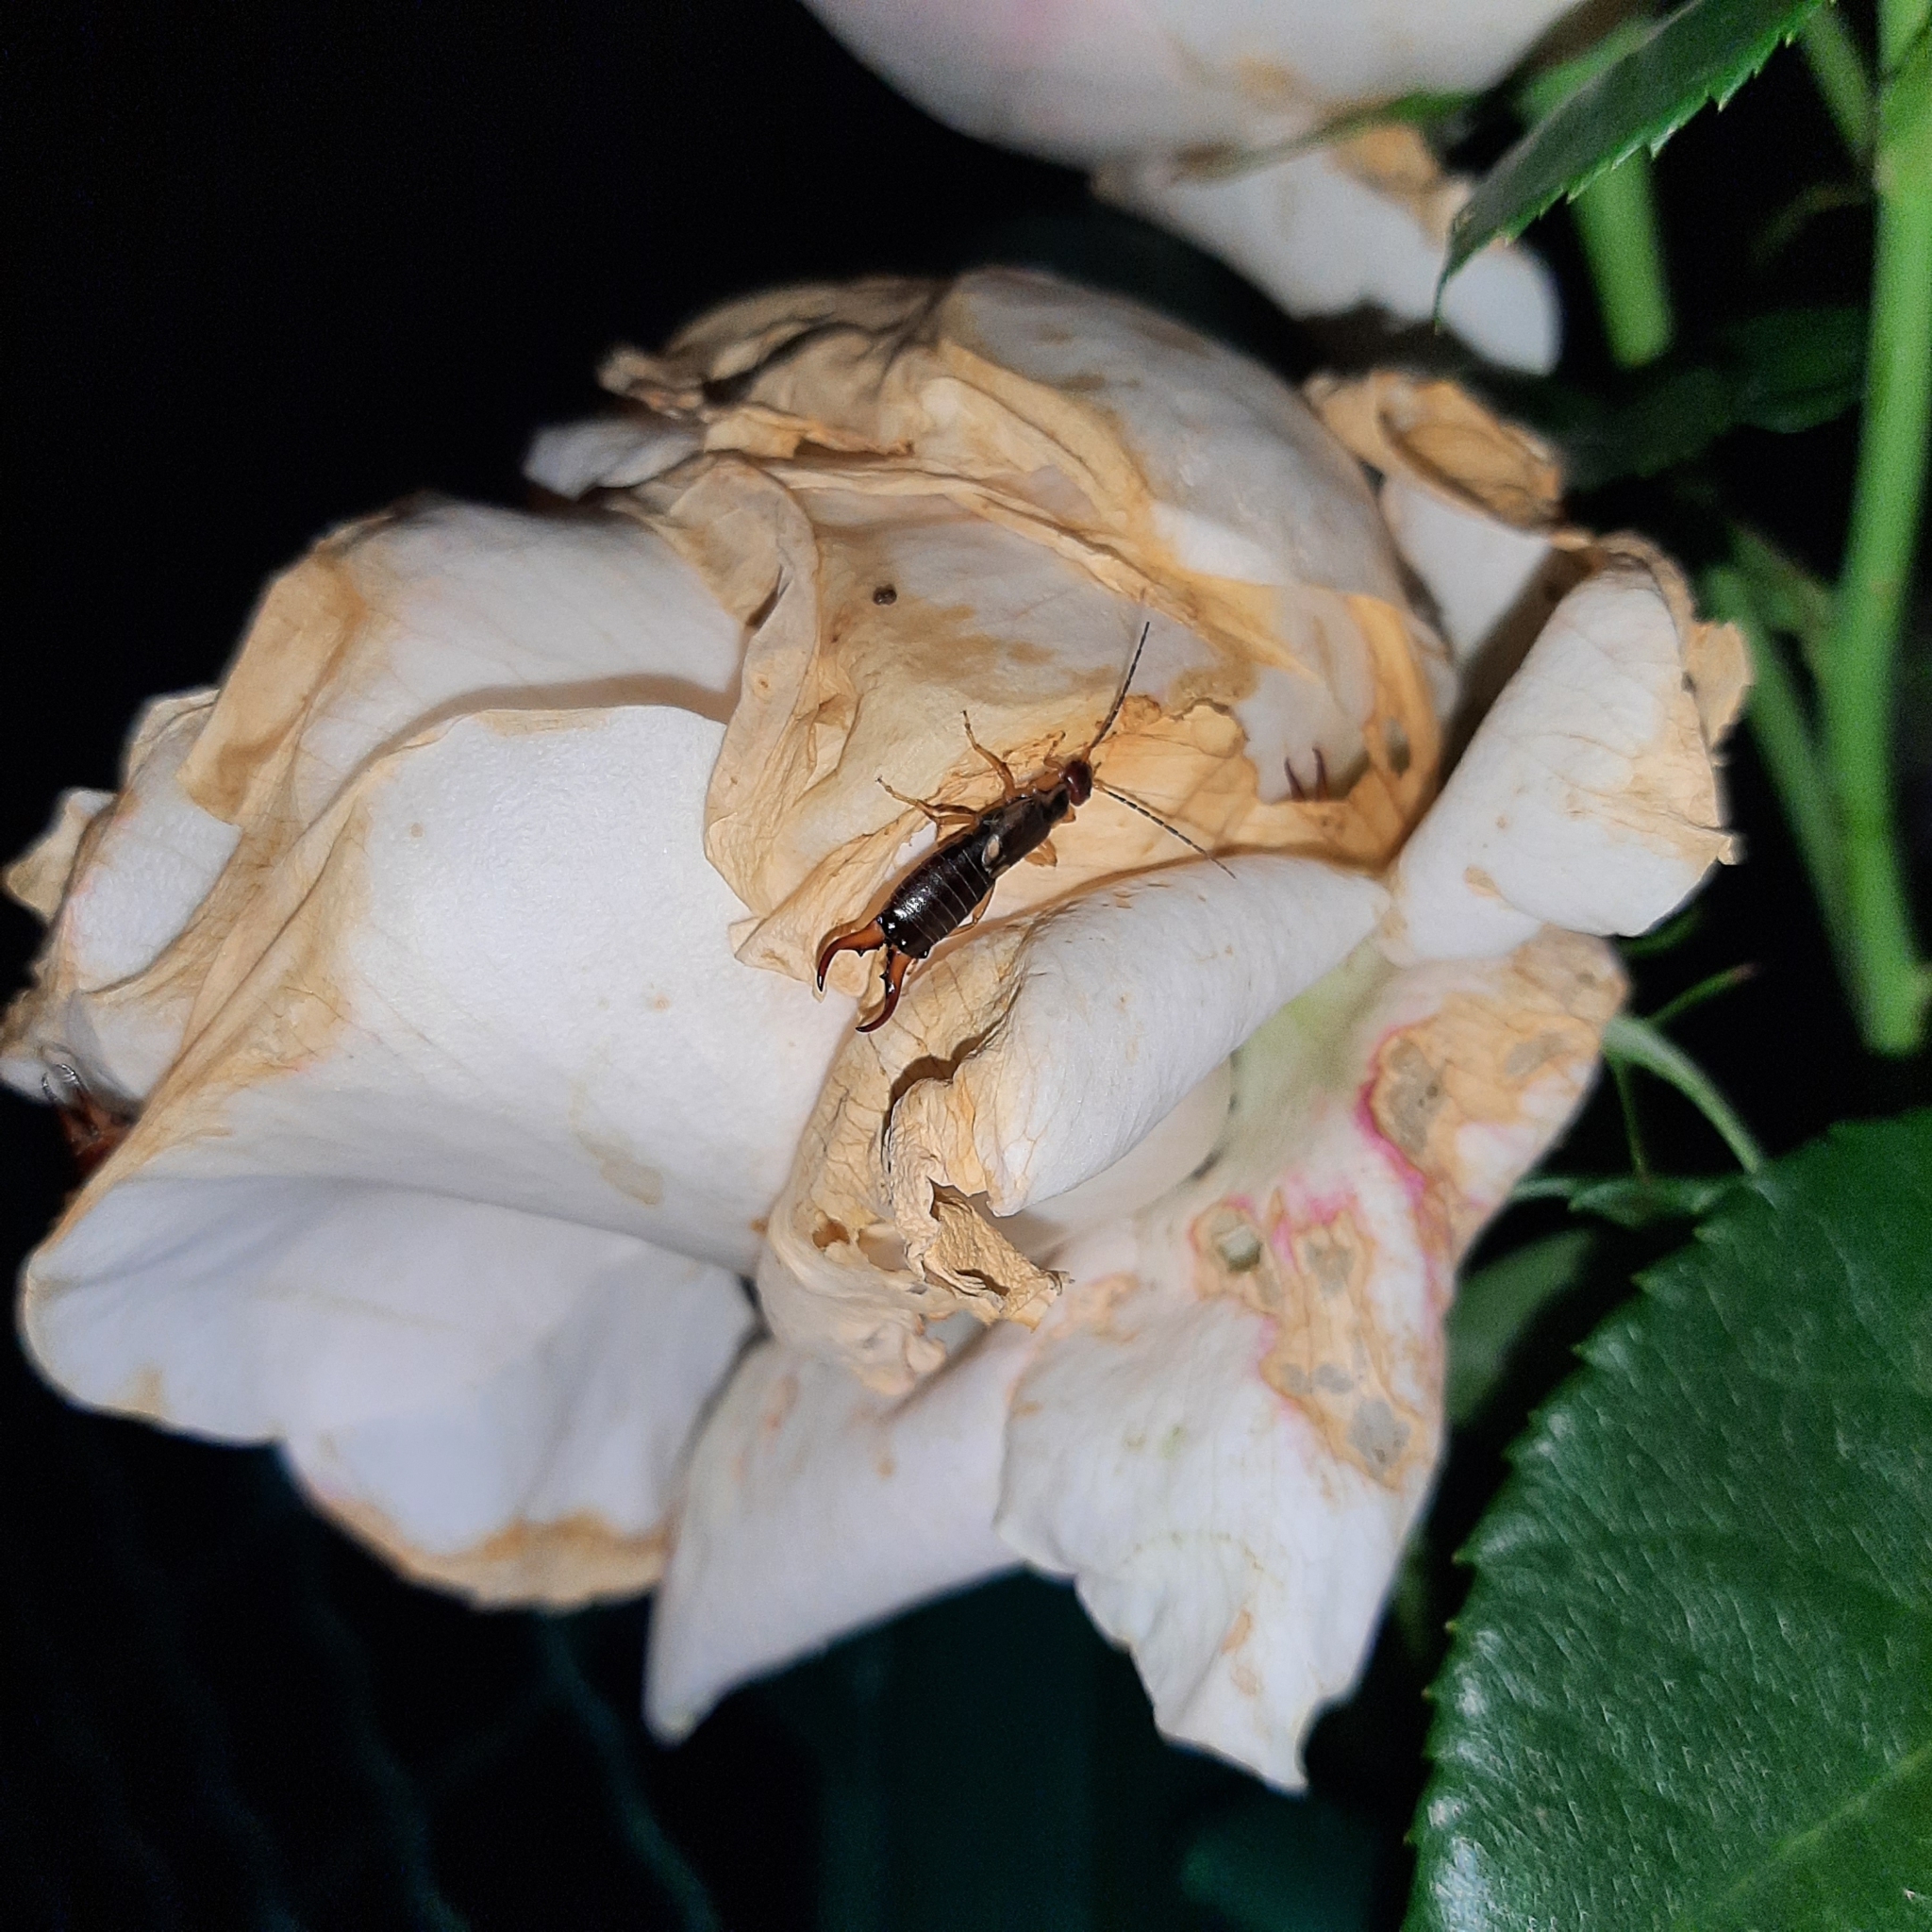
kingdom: Animalia
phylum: Arthropoda
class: Insecta
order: Dermaptera
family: Forficulidae
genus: Forficula
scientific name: Forficula
